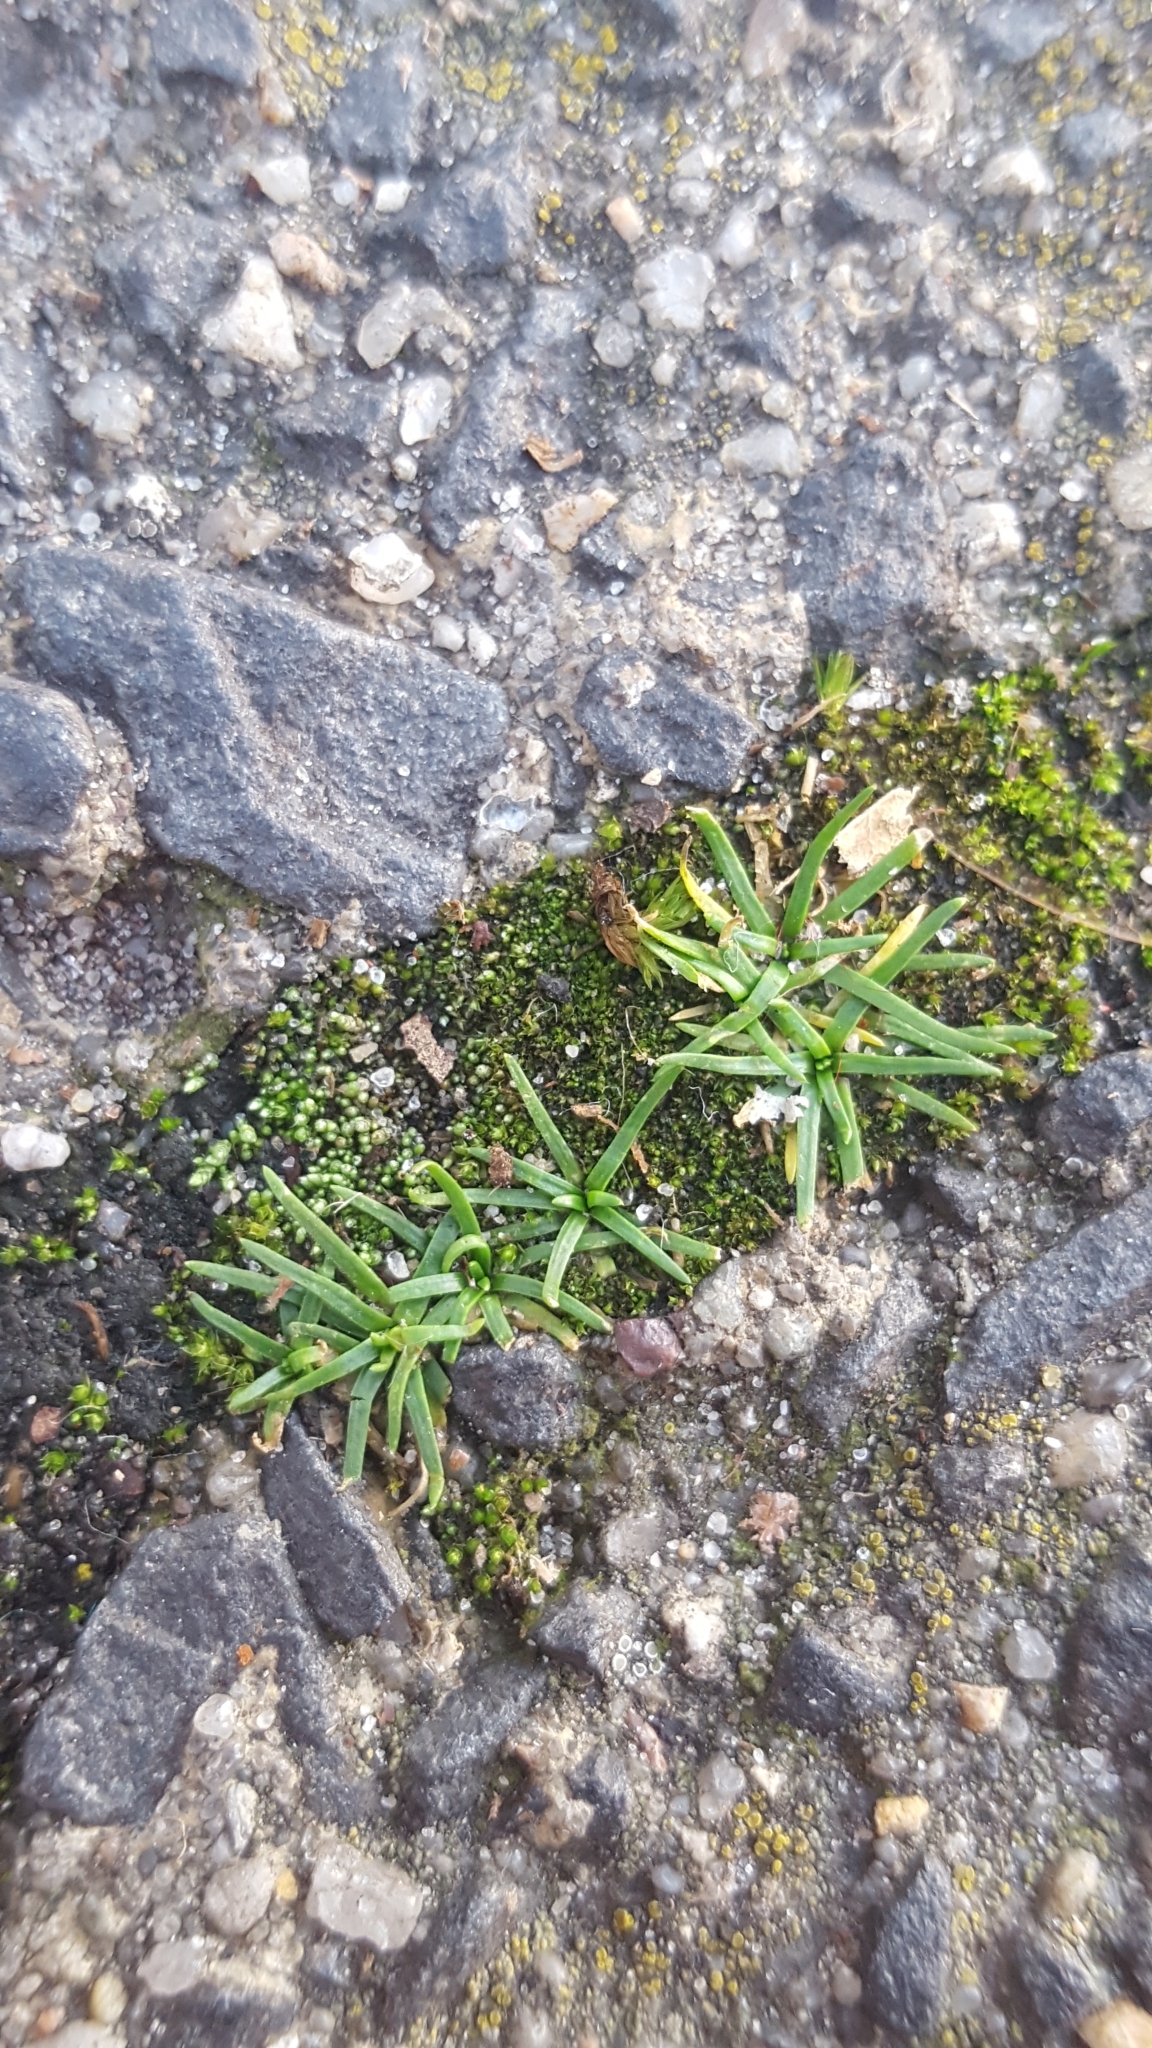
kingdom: Plantae
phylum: Tracheophyta
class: Magnoliopsida
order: Caryophyllales
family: Caryophyllaceae
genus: Sagina
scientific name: Sagina procumbens
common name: Procumbent pearlwort
